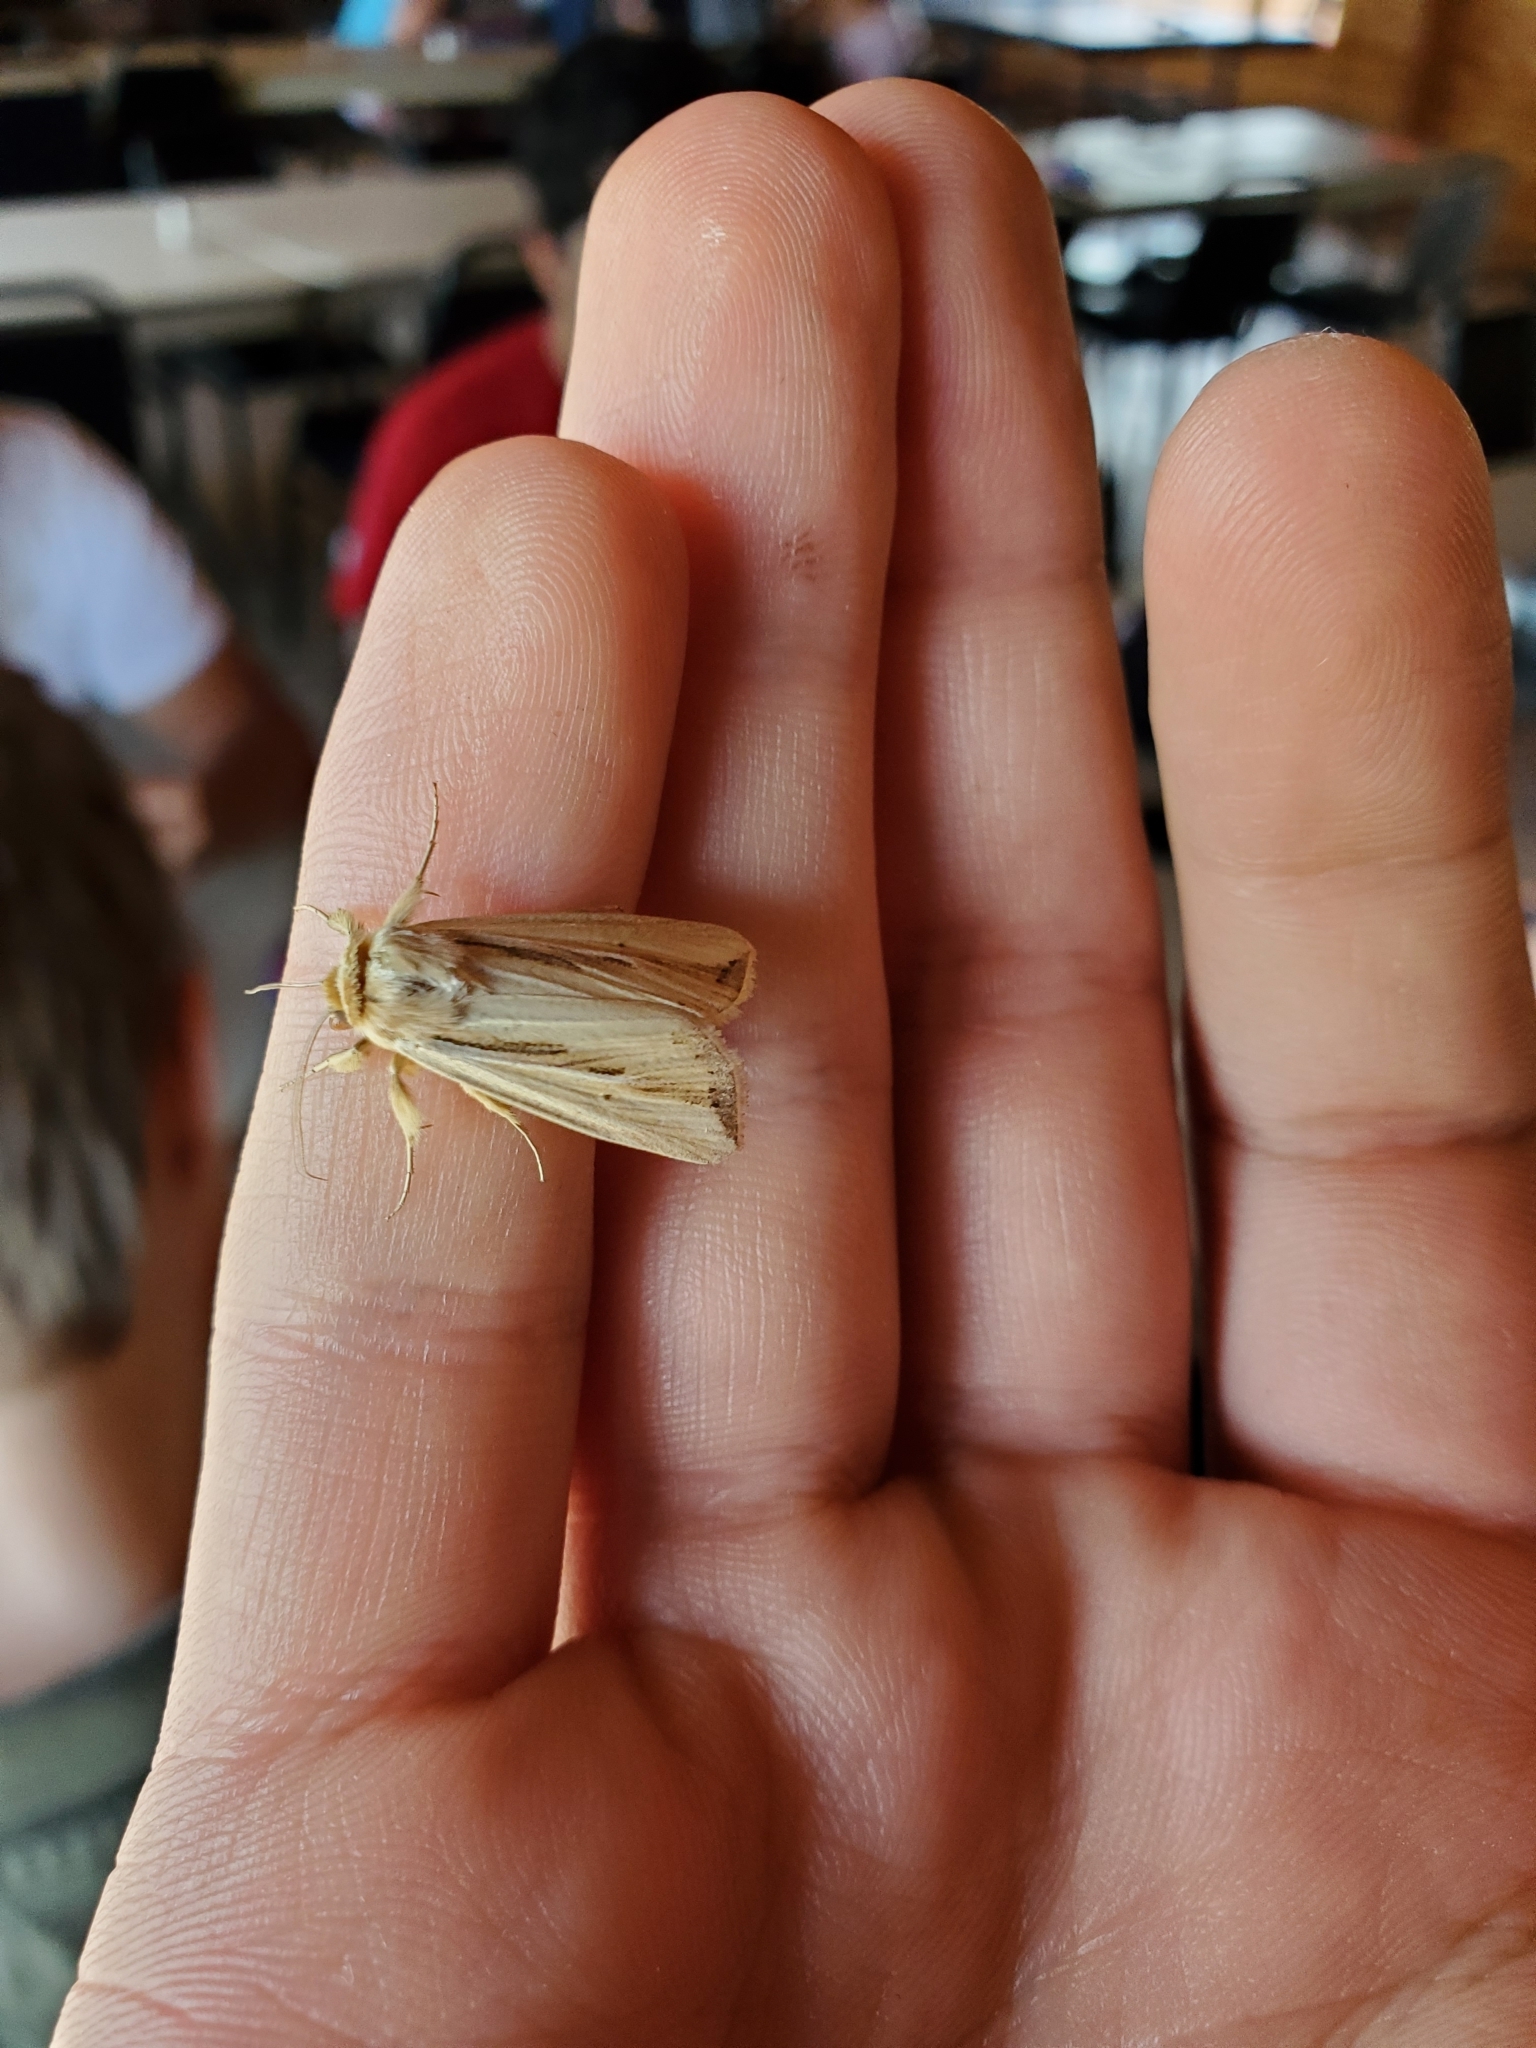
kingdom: Animalia
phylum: Arthropoda
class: Insecta
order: Lepidoptera
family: Noctuidae
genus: Dargida
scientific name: Dargida diffusa
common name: Wheat head armyworm
